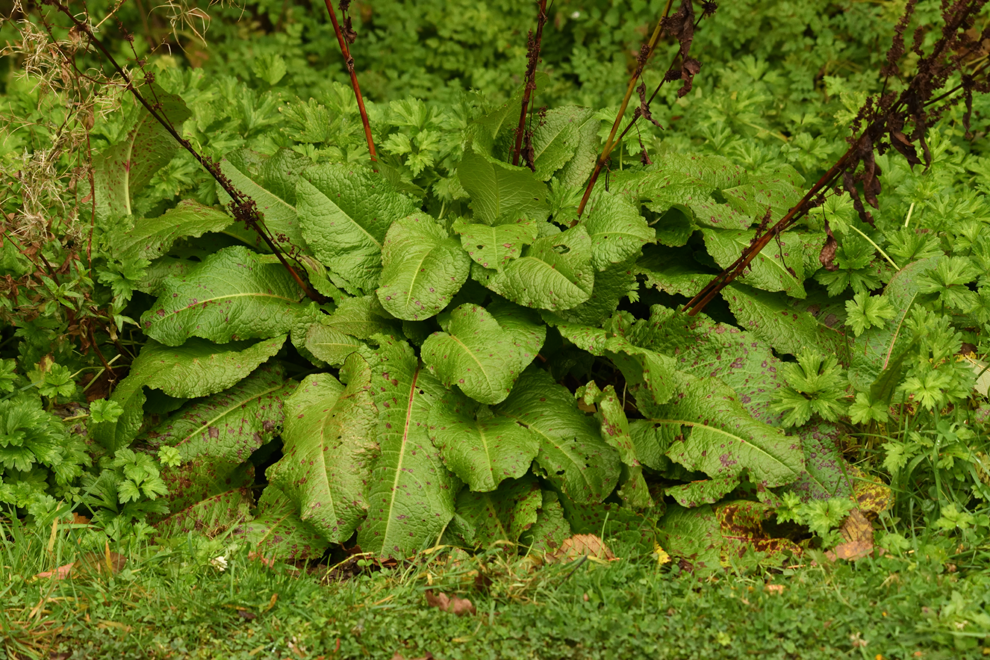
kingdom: Plantae
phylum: Tracheophyta
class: Magnoliopsida
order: Caryophyllales
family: Polygonaceae
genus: Rumex
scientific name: Rumex obtusifolius
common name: Bitter dock
